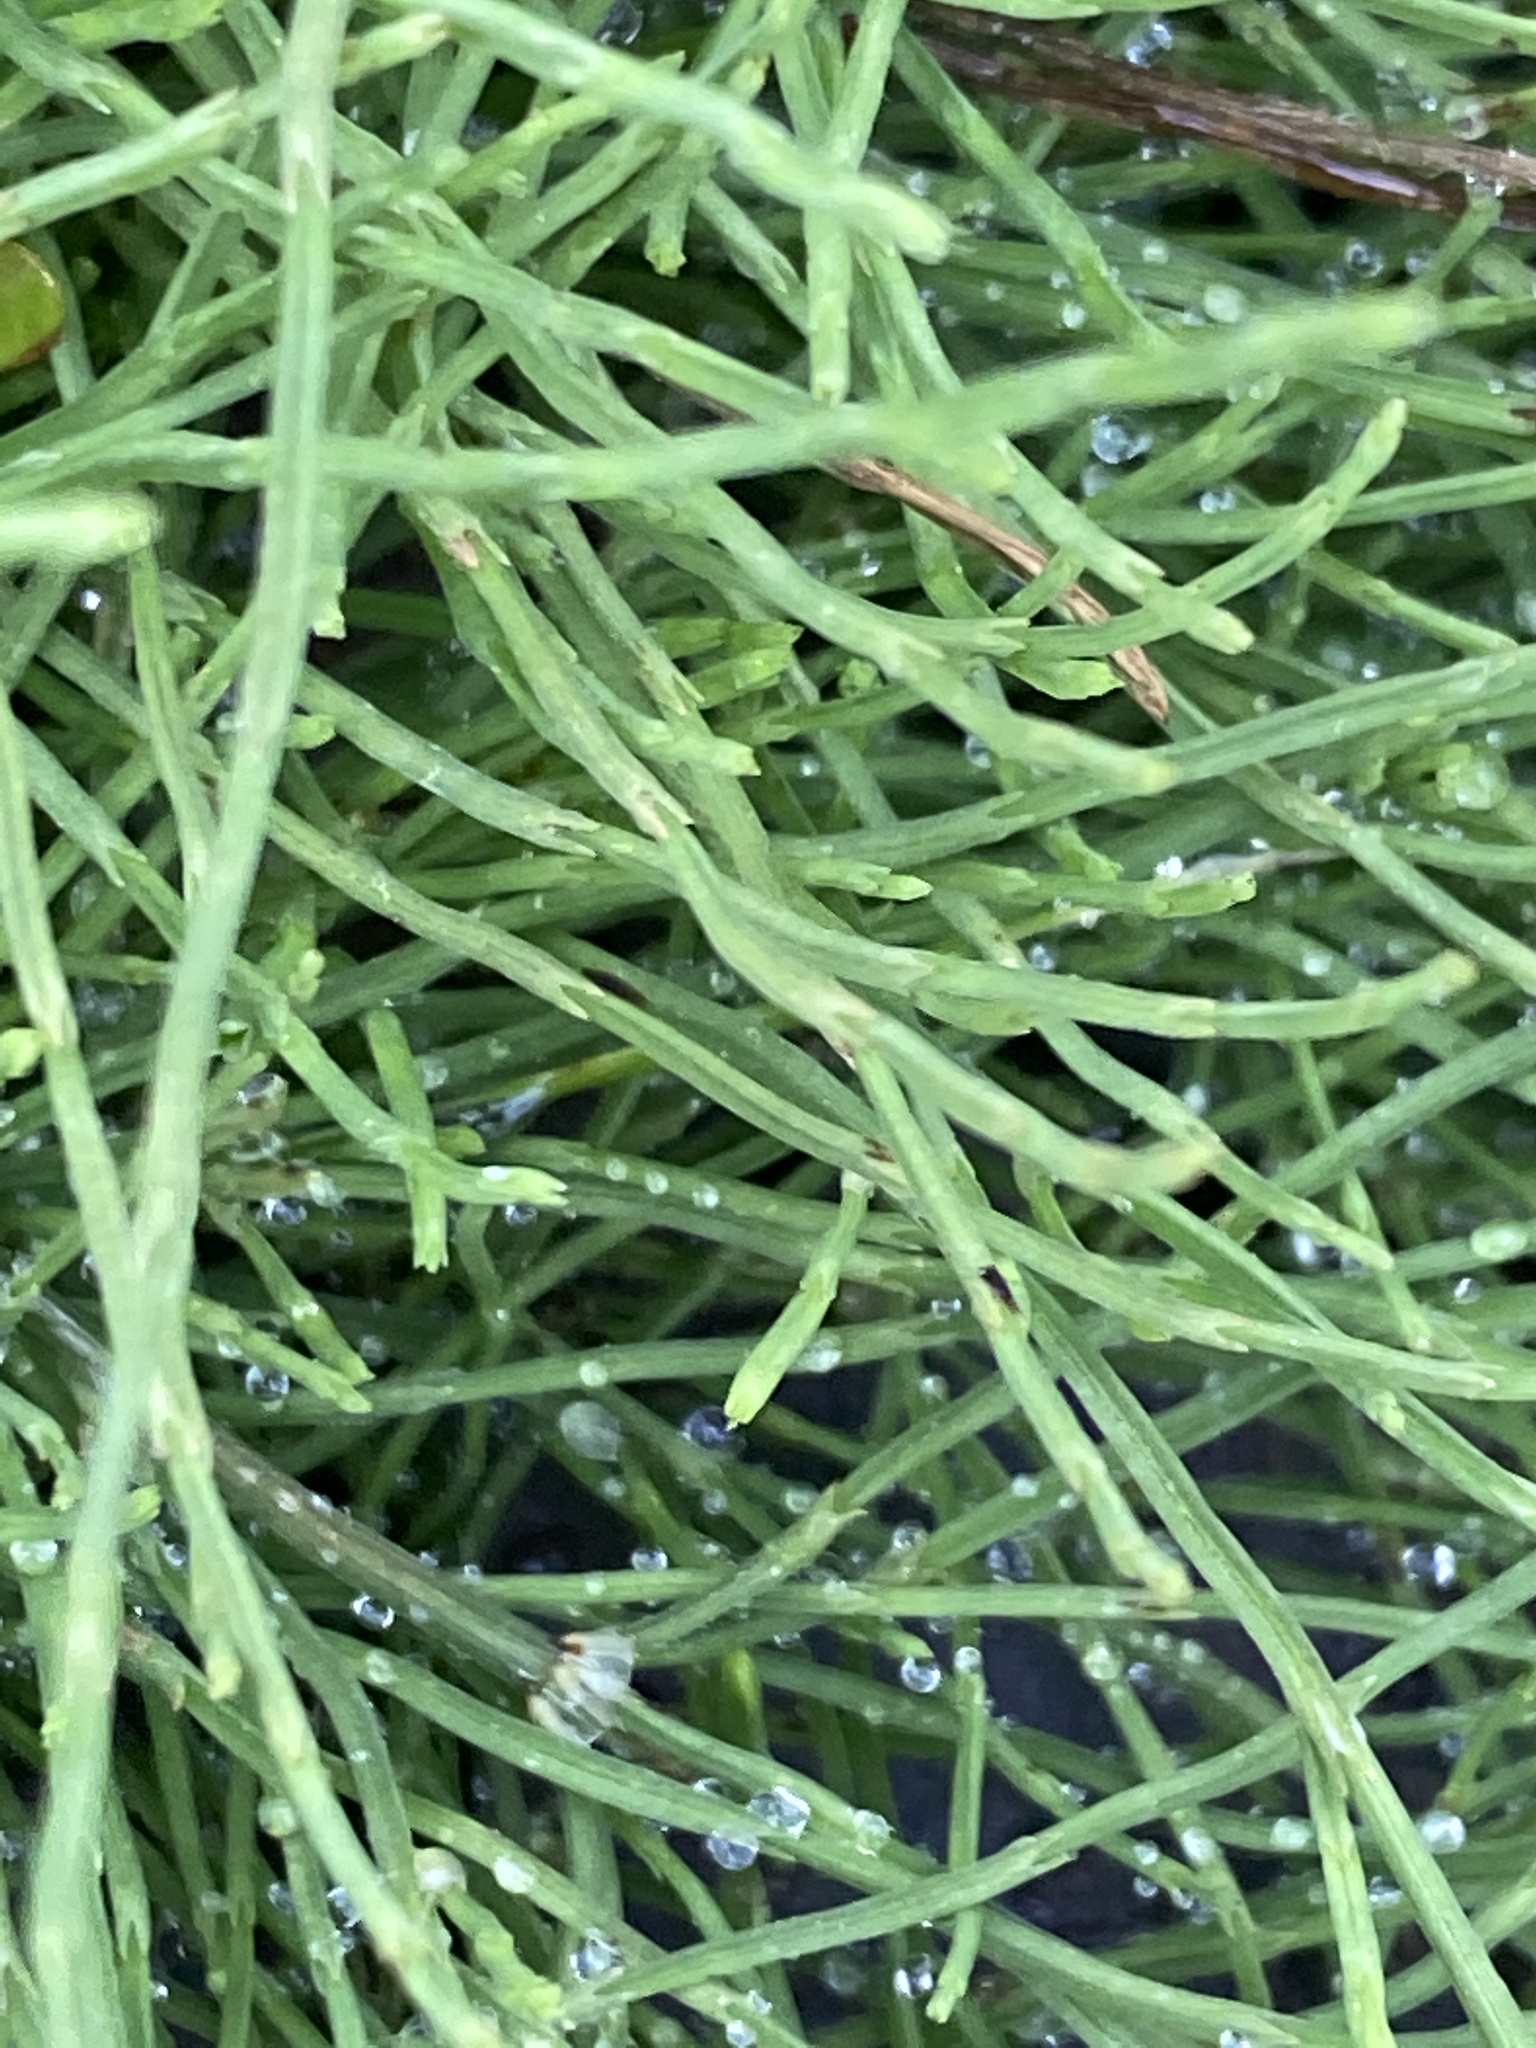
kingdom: Plantae
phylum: Tracheophyta
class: Polypodiopsida
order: Equisetales
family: Equisetaceae
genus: Equisetum
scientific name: Equisetum arvense
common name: Field horsetail
